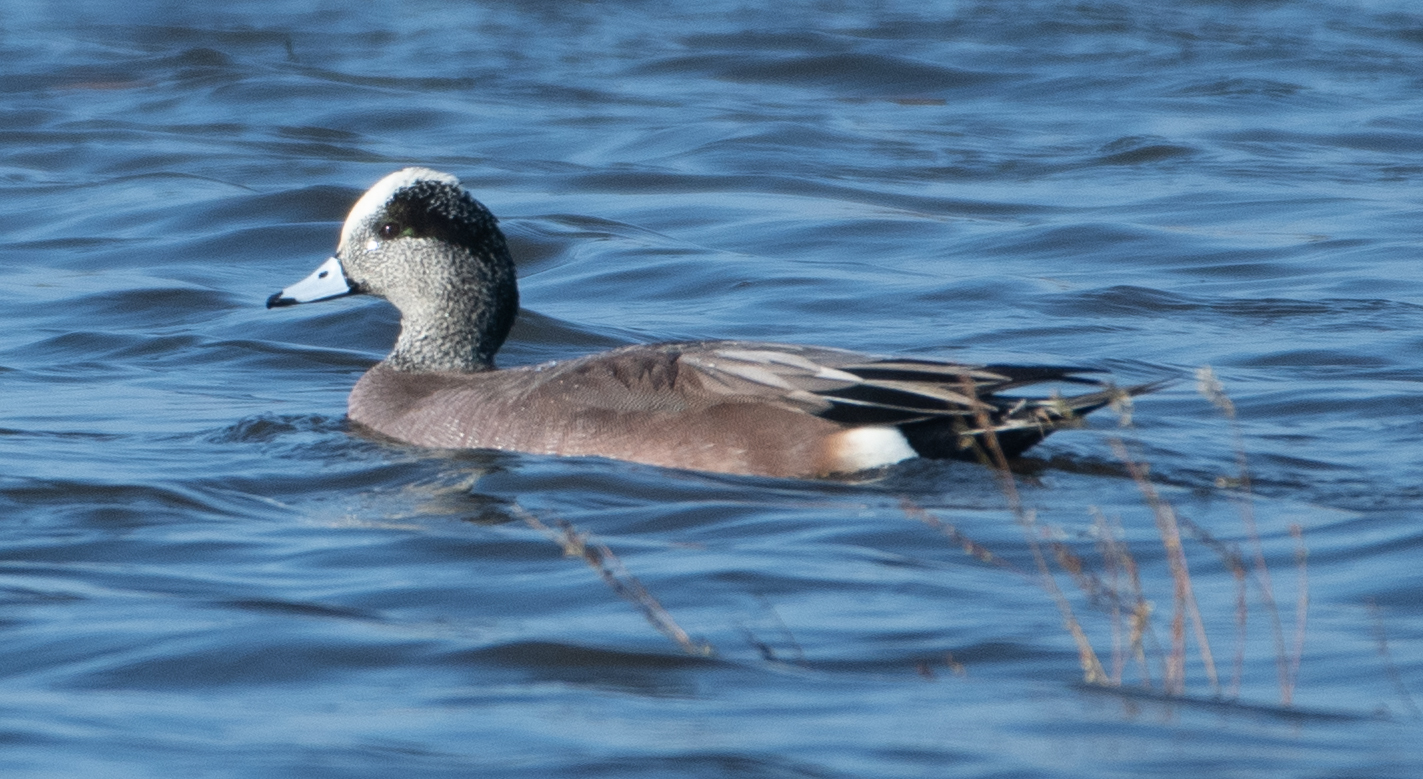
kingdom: Animalia
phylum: Chordata
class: Aves
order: Anseriformes
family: Anatidae
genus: Mareca
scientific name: Mareca americana
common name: American wigeon
